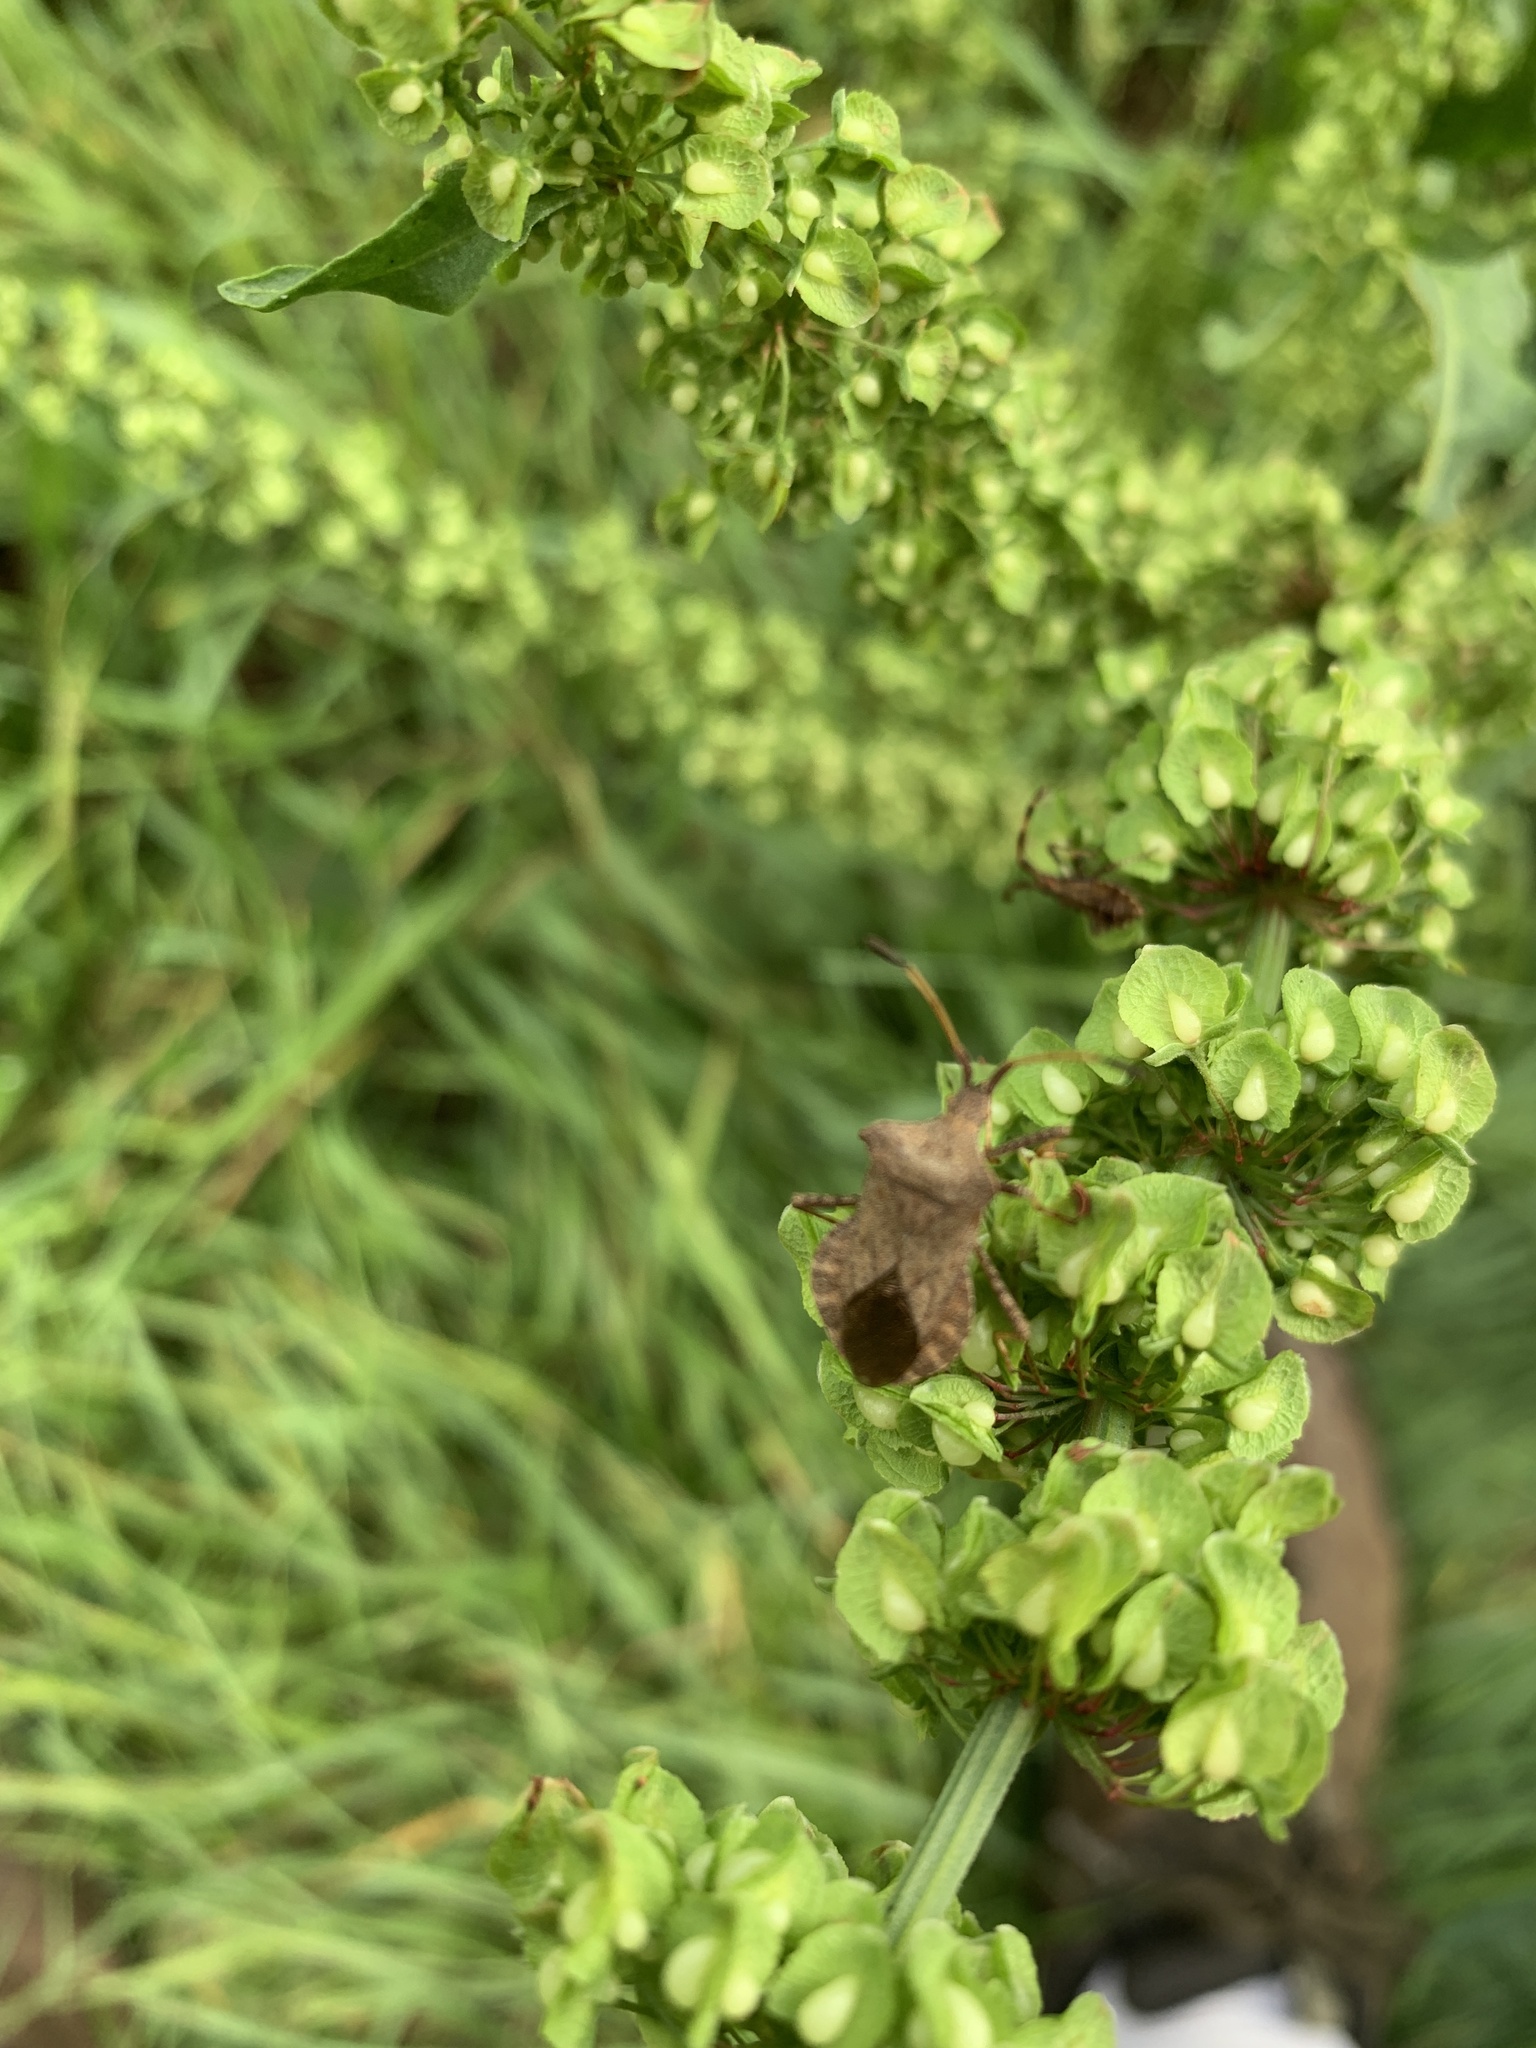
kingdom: Animalia
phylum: Arthropoda
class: Insecta
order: Hemiptera
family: Coreidae
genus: Coreus
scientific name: Coreus marginatus
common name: Dock bug
